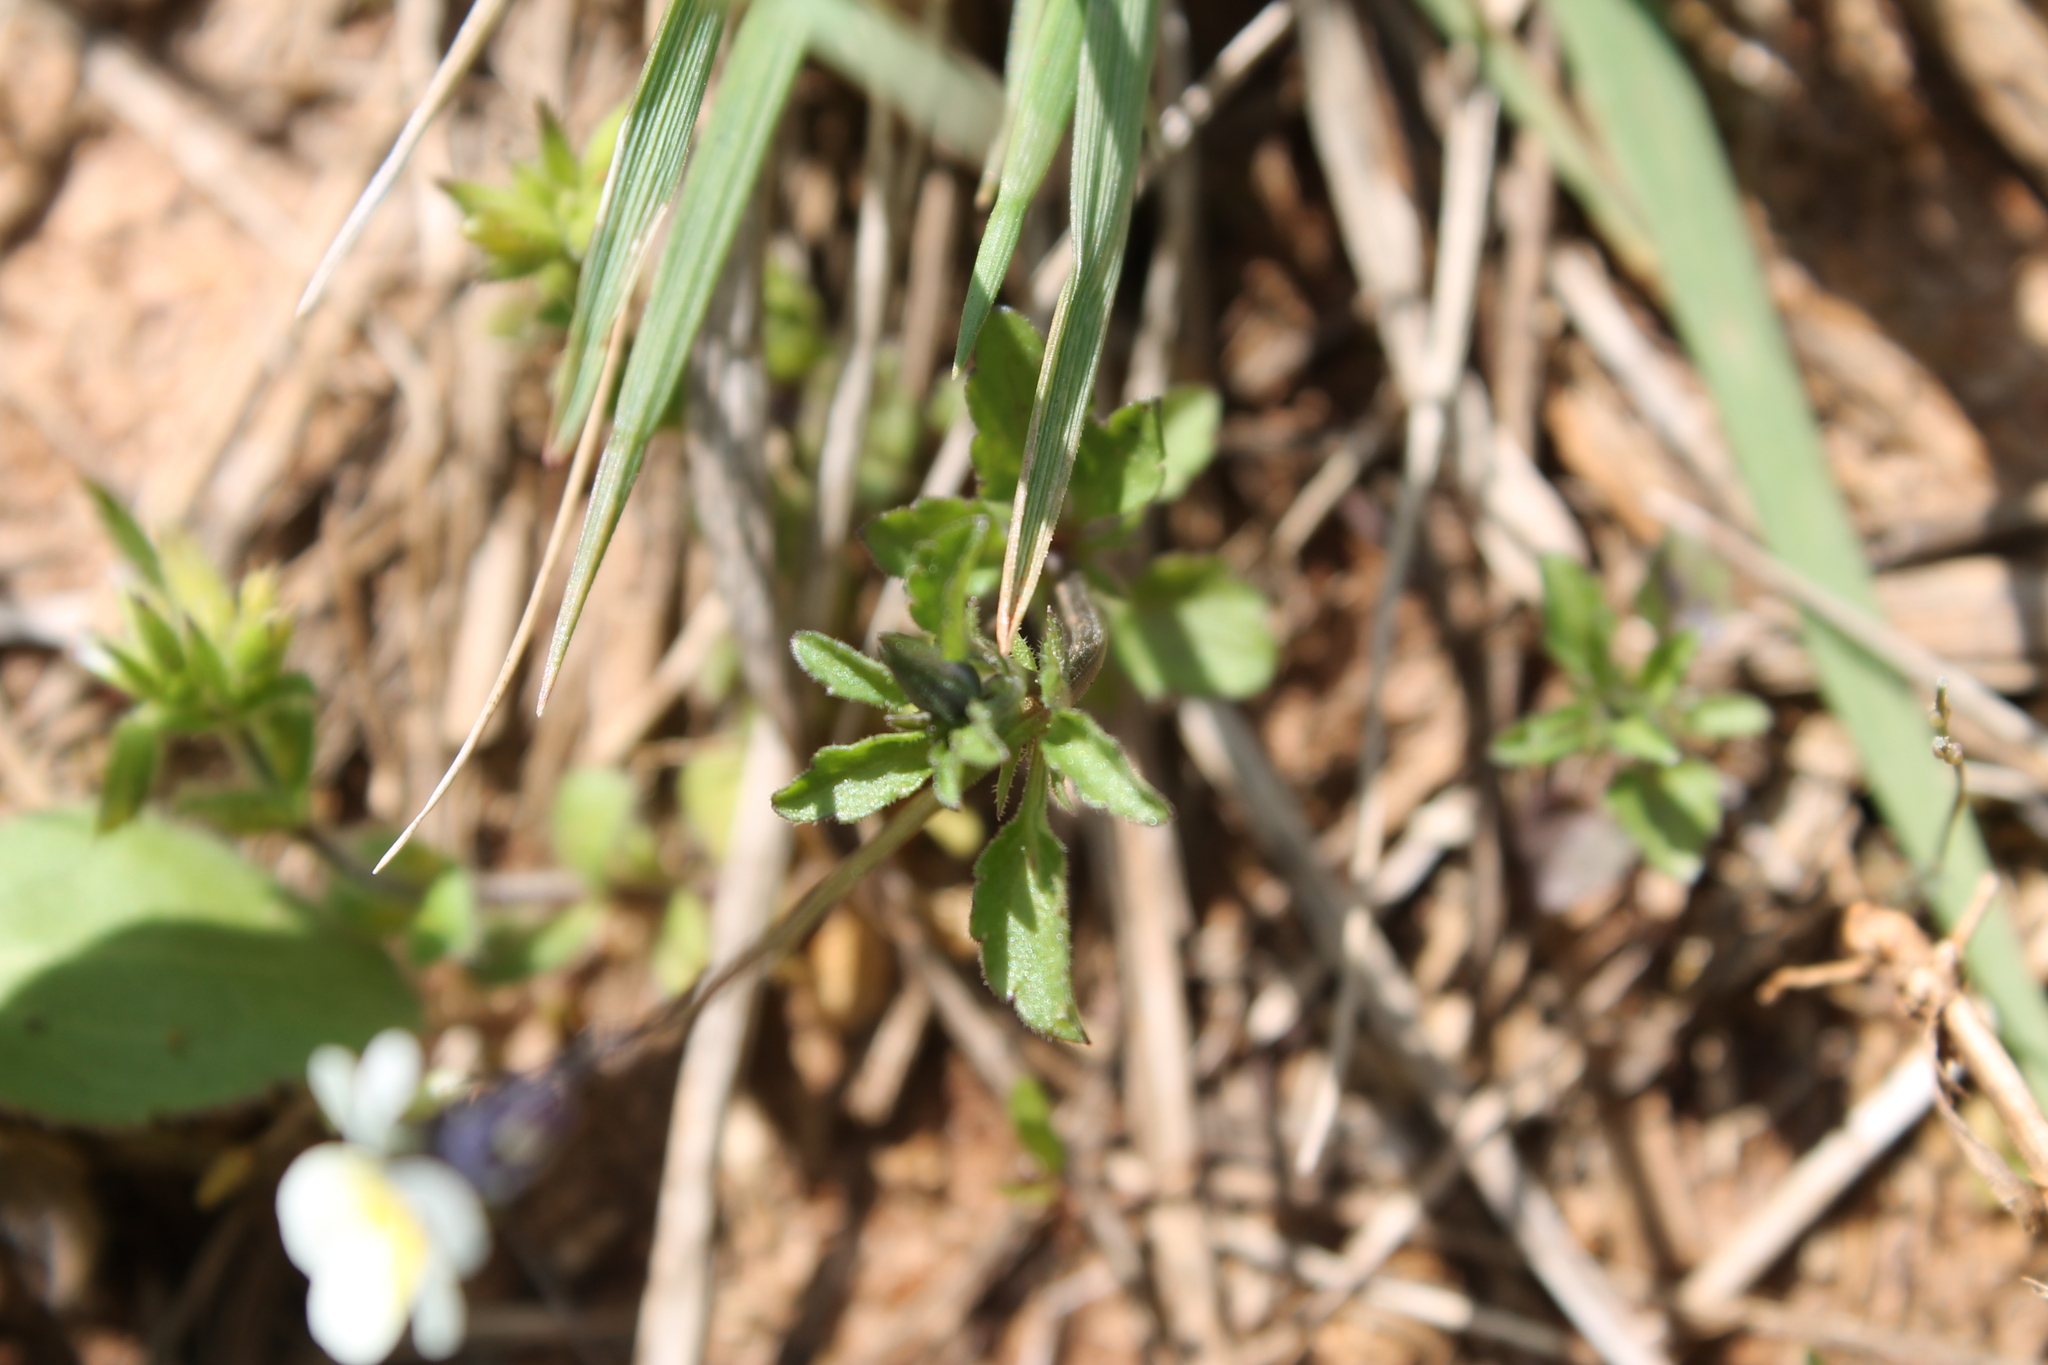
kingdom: Plantae
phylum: Tracheophyta
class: Magnoliopsida
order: Malpighiales
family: Violaceae
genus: Viola
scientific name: Viola arvensis
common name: Field pansy
